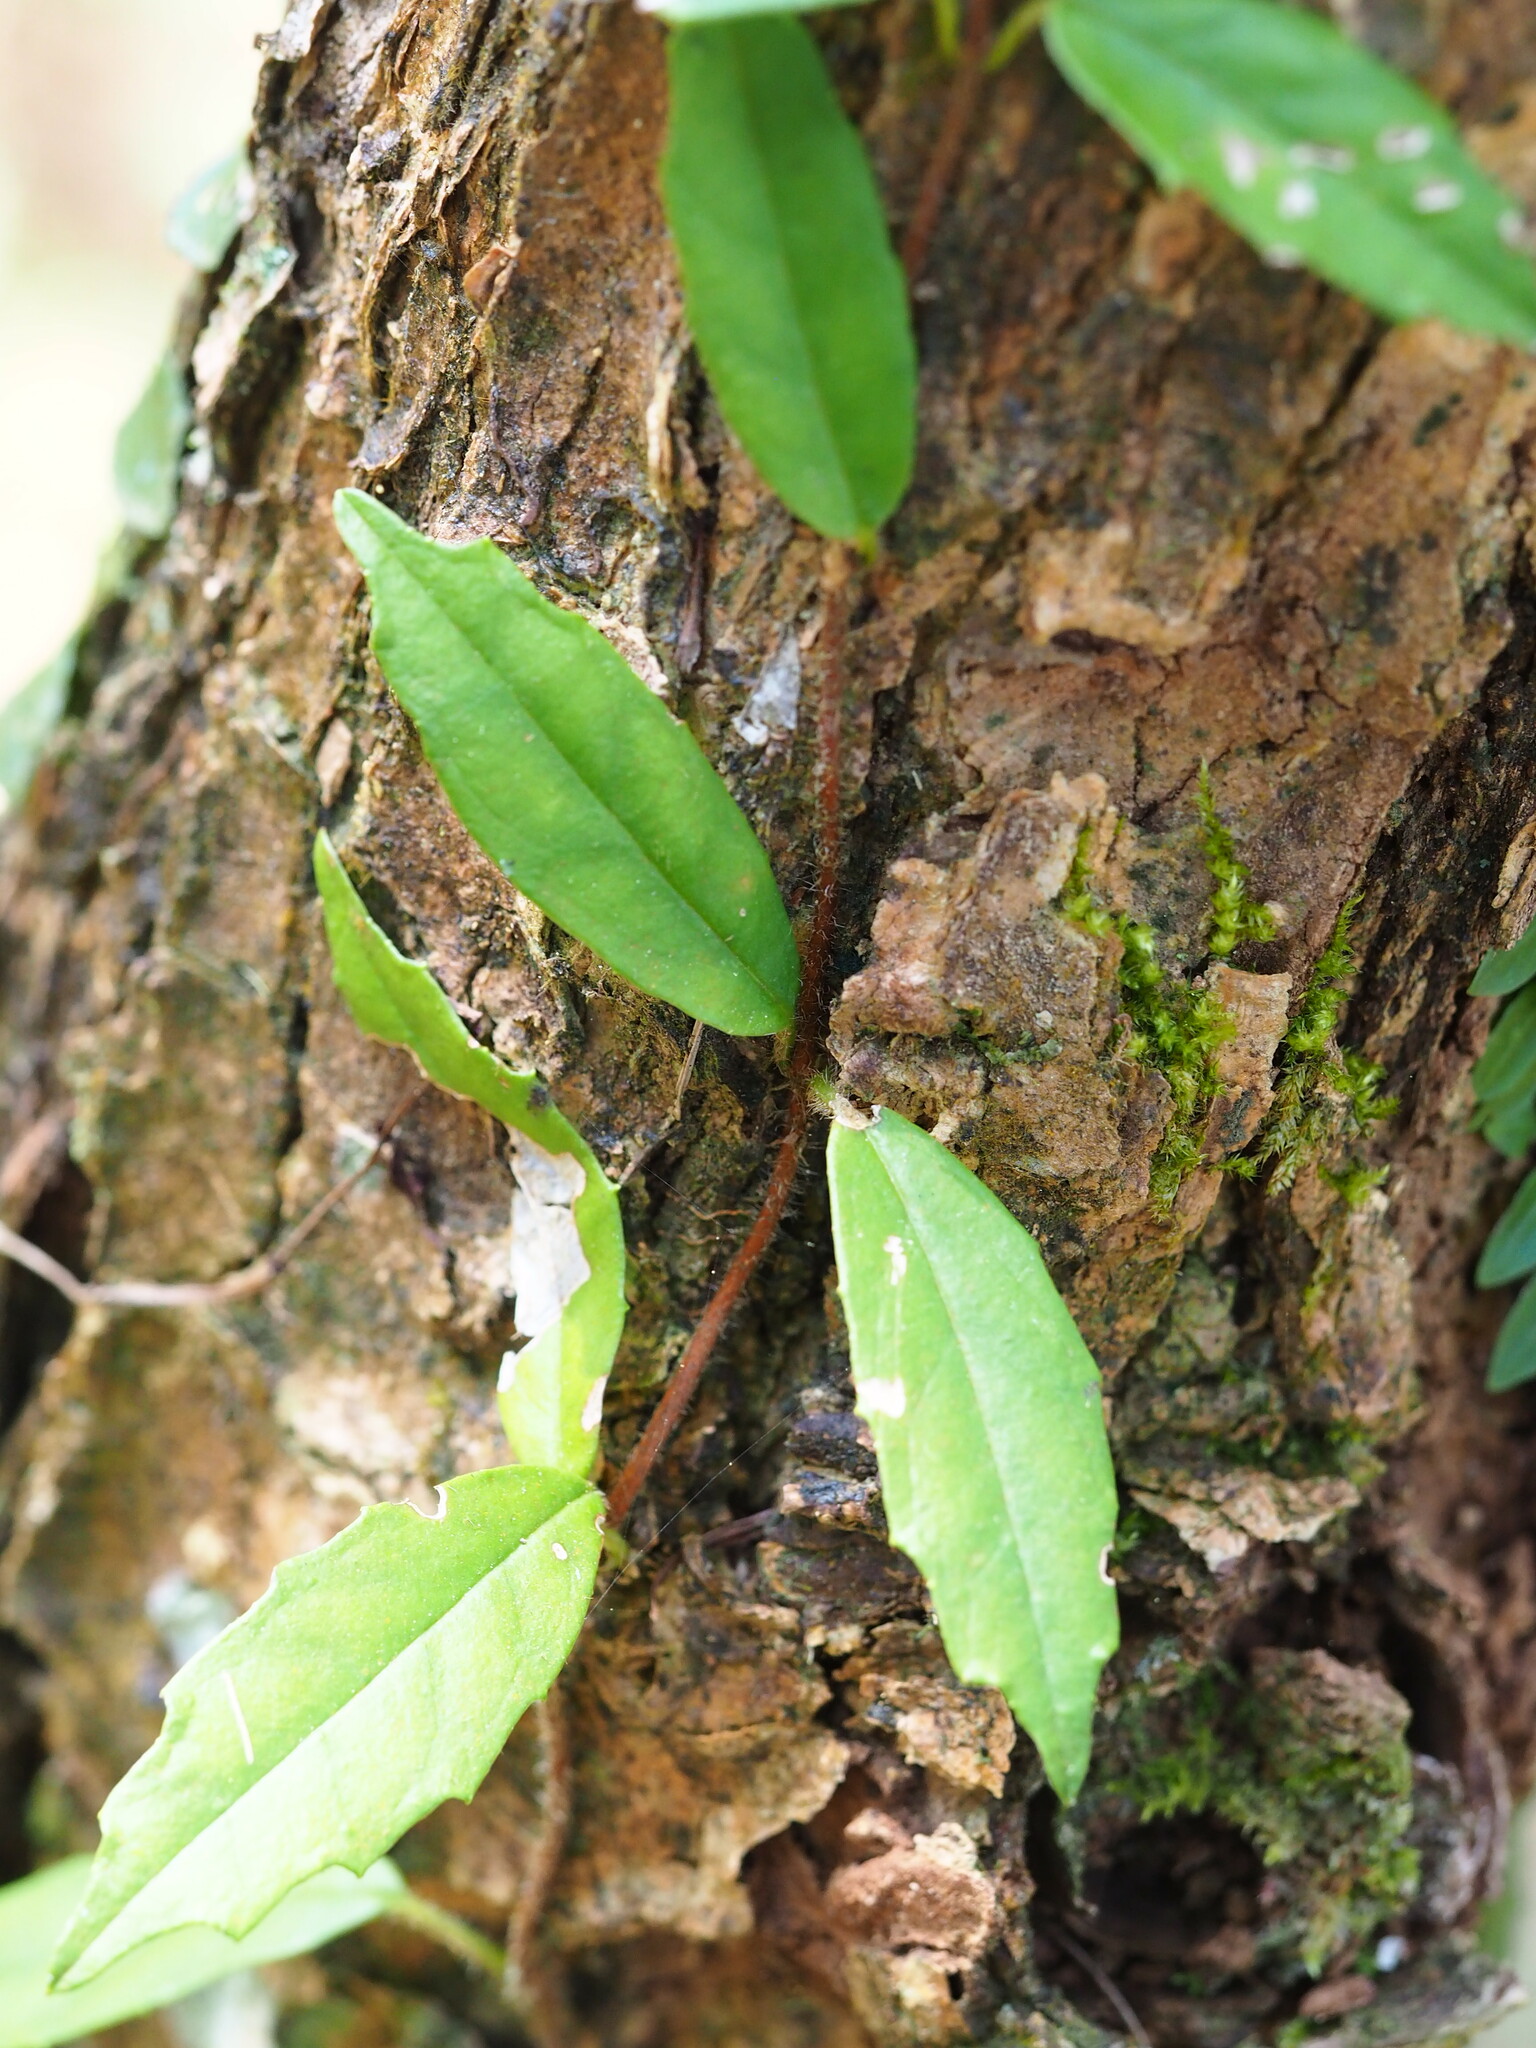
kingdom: Plantae
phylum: Tracheophyta
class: Magnoliopsida
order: Cornales
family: Hydrangeaceae
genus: Hydrangea
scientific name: Hydrangea viburnoides
